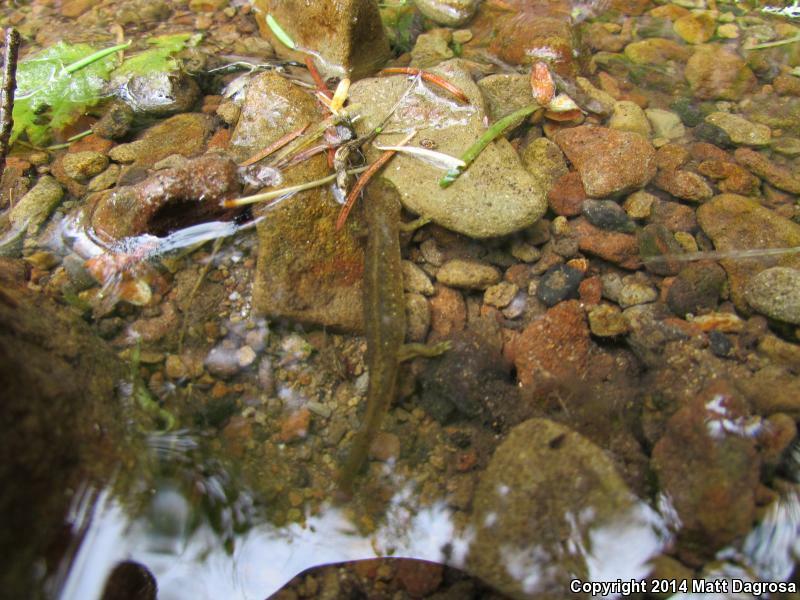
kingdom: Animalia
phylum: Chordata
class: Amphibia
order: Caudata
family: Rhyacotritonidae
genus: Rhyacotriton
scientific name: Rhyacotriton variegatus
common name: Southern torrent salamander
